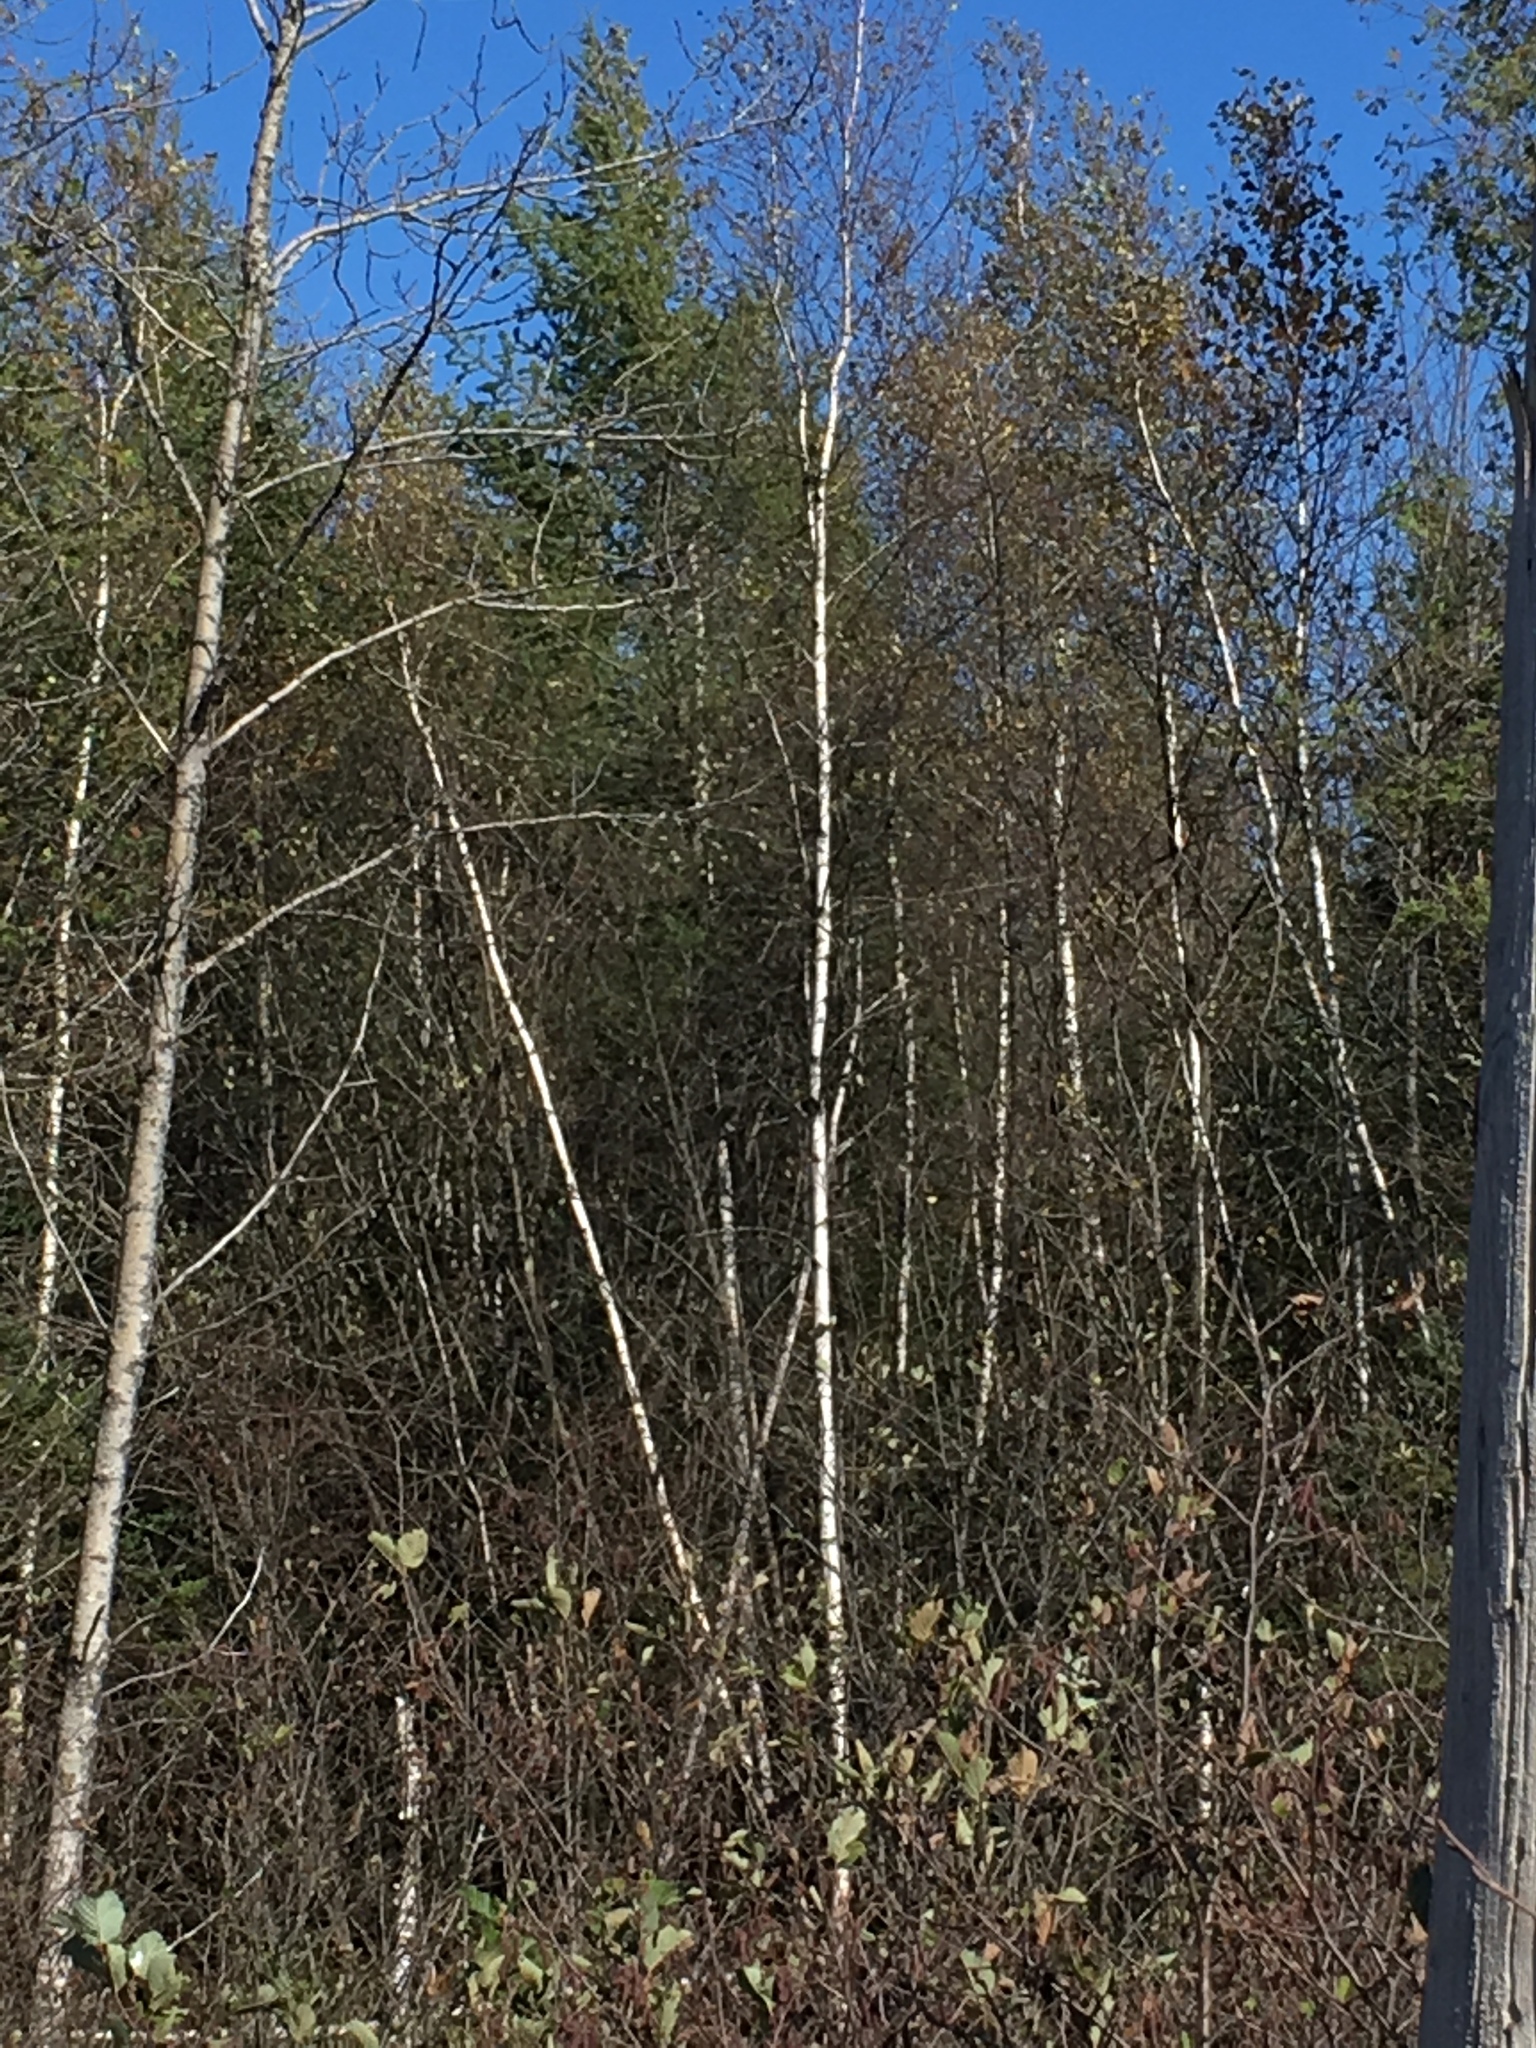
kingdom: Plantae
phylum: Tracheophyta
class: Magnoliopsida
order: Fagales
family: Betulaceae
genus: Betula
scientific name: Betula populifolia
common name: Fire birch
